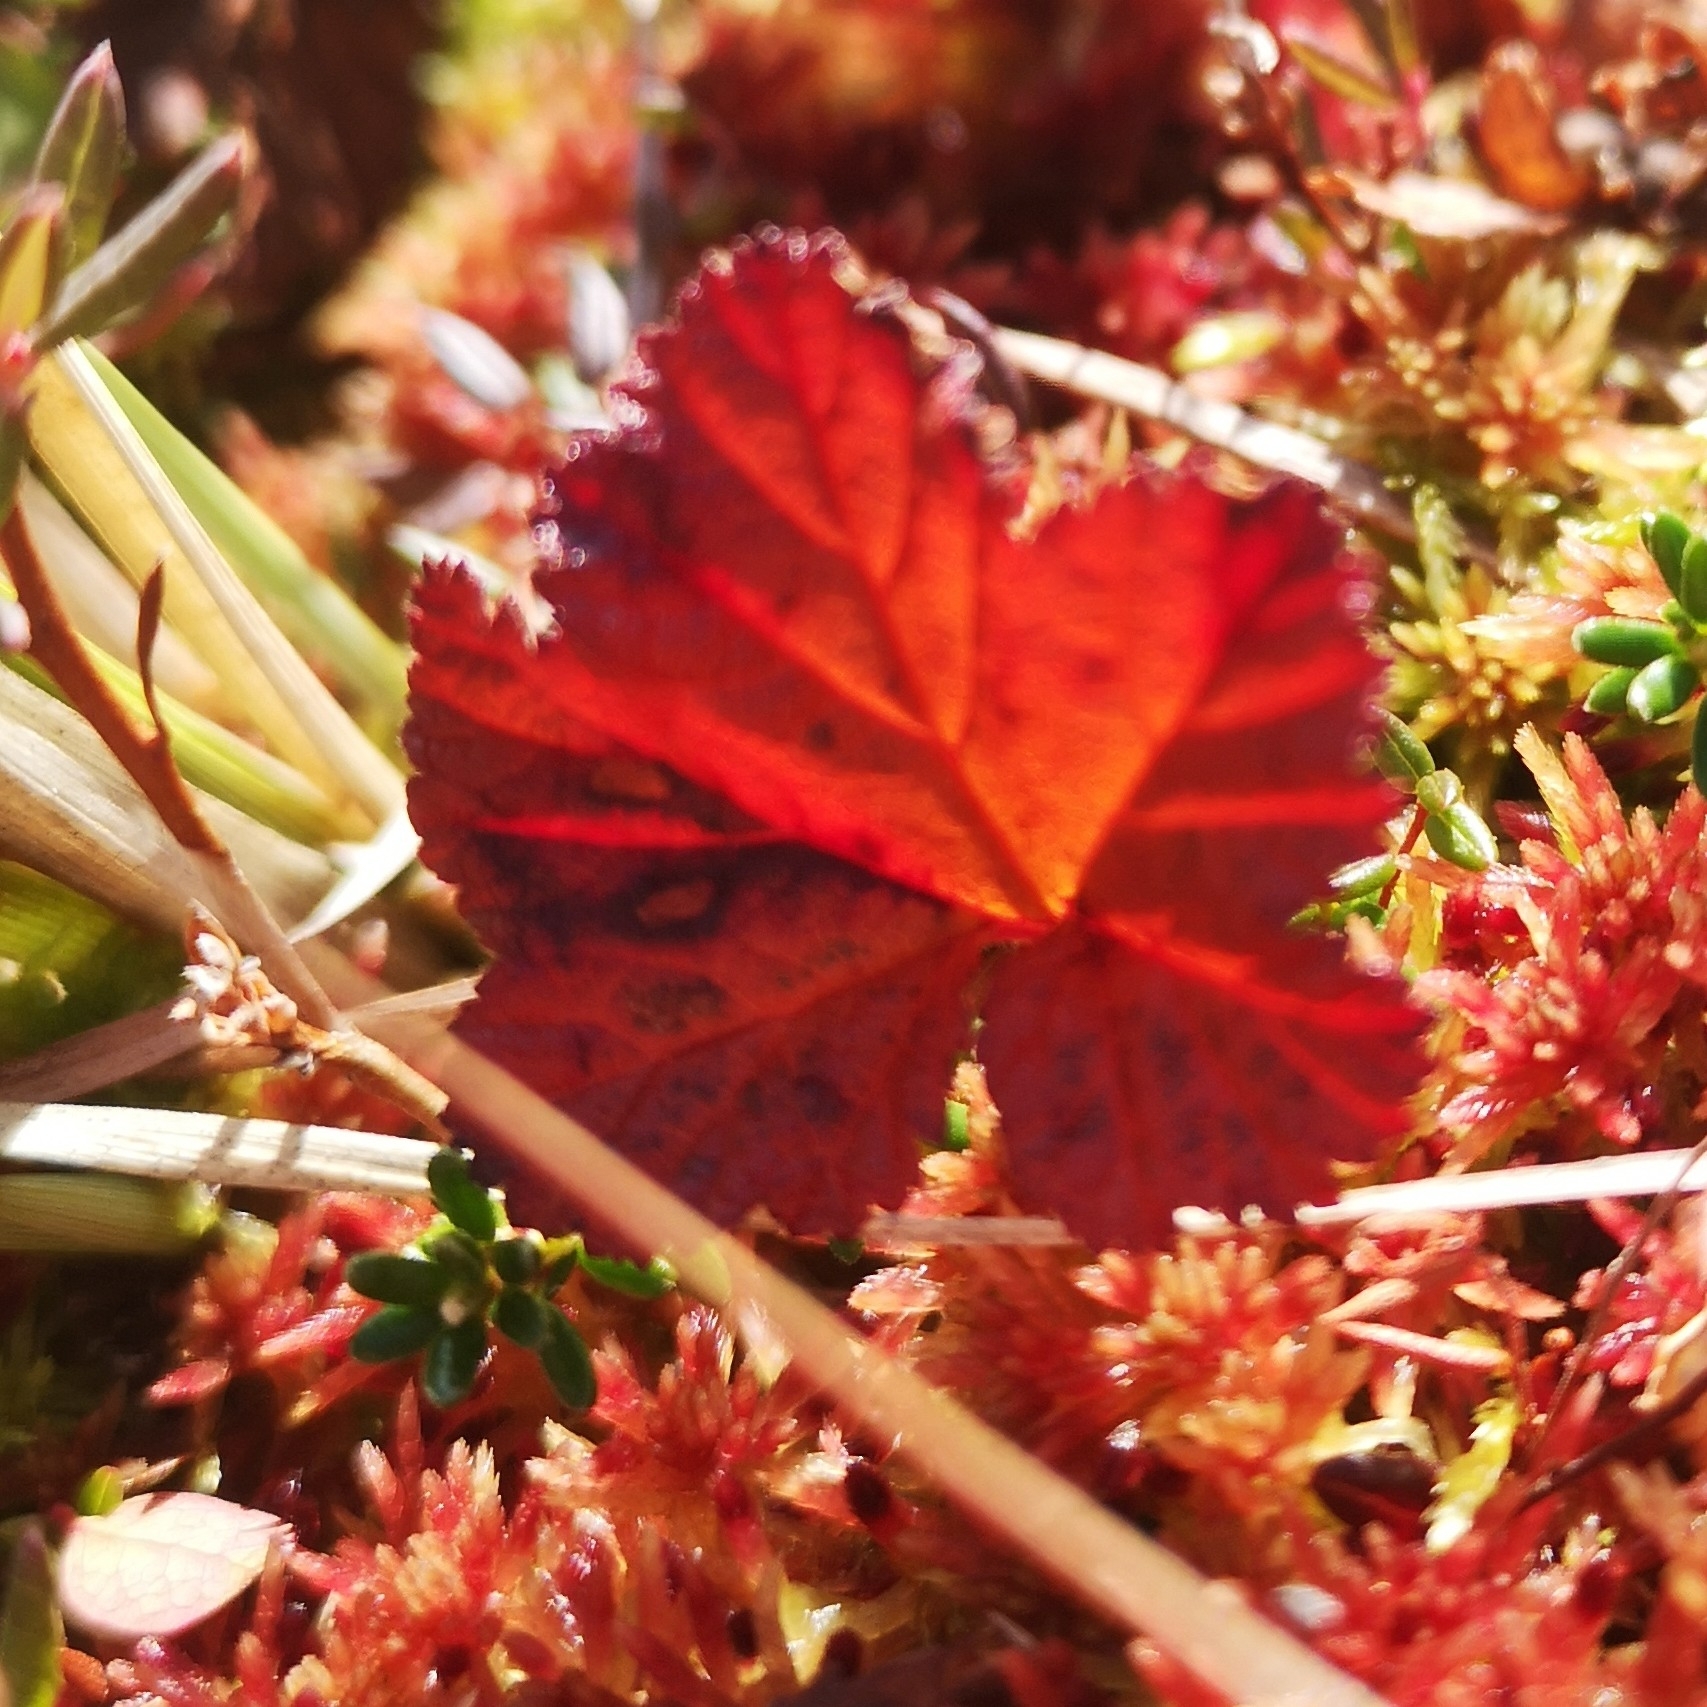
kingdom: Plantae
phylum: Tracheophyta
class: Magnoliopsida
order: Rosales
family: Rosaceae
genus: Rubus
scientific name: Rubus chamaemorus
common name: Cloudberry
